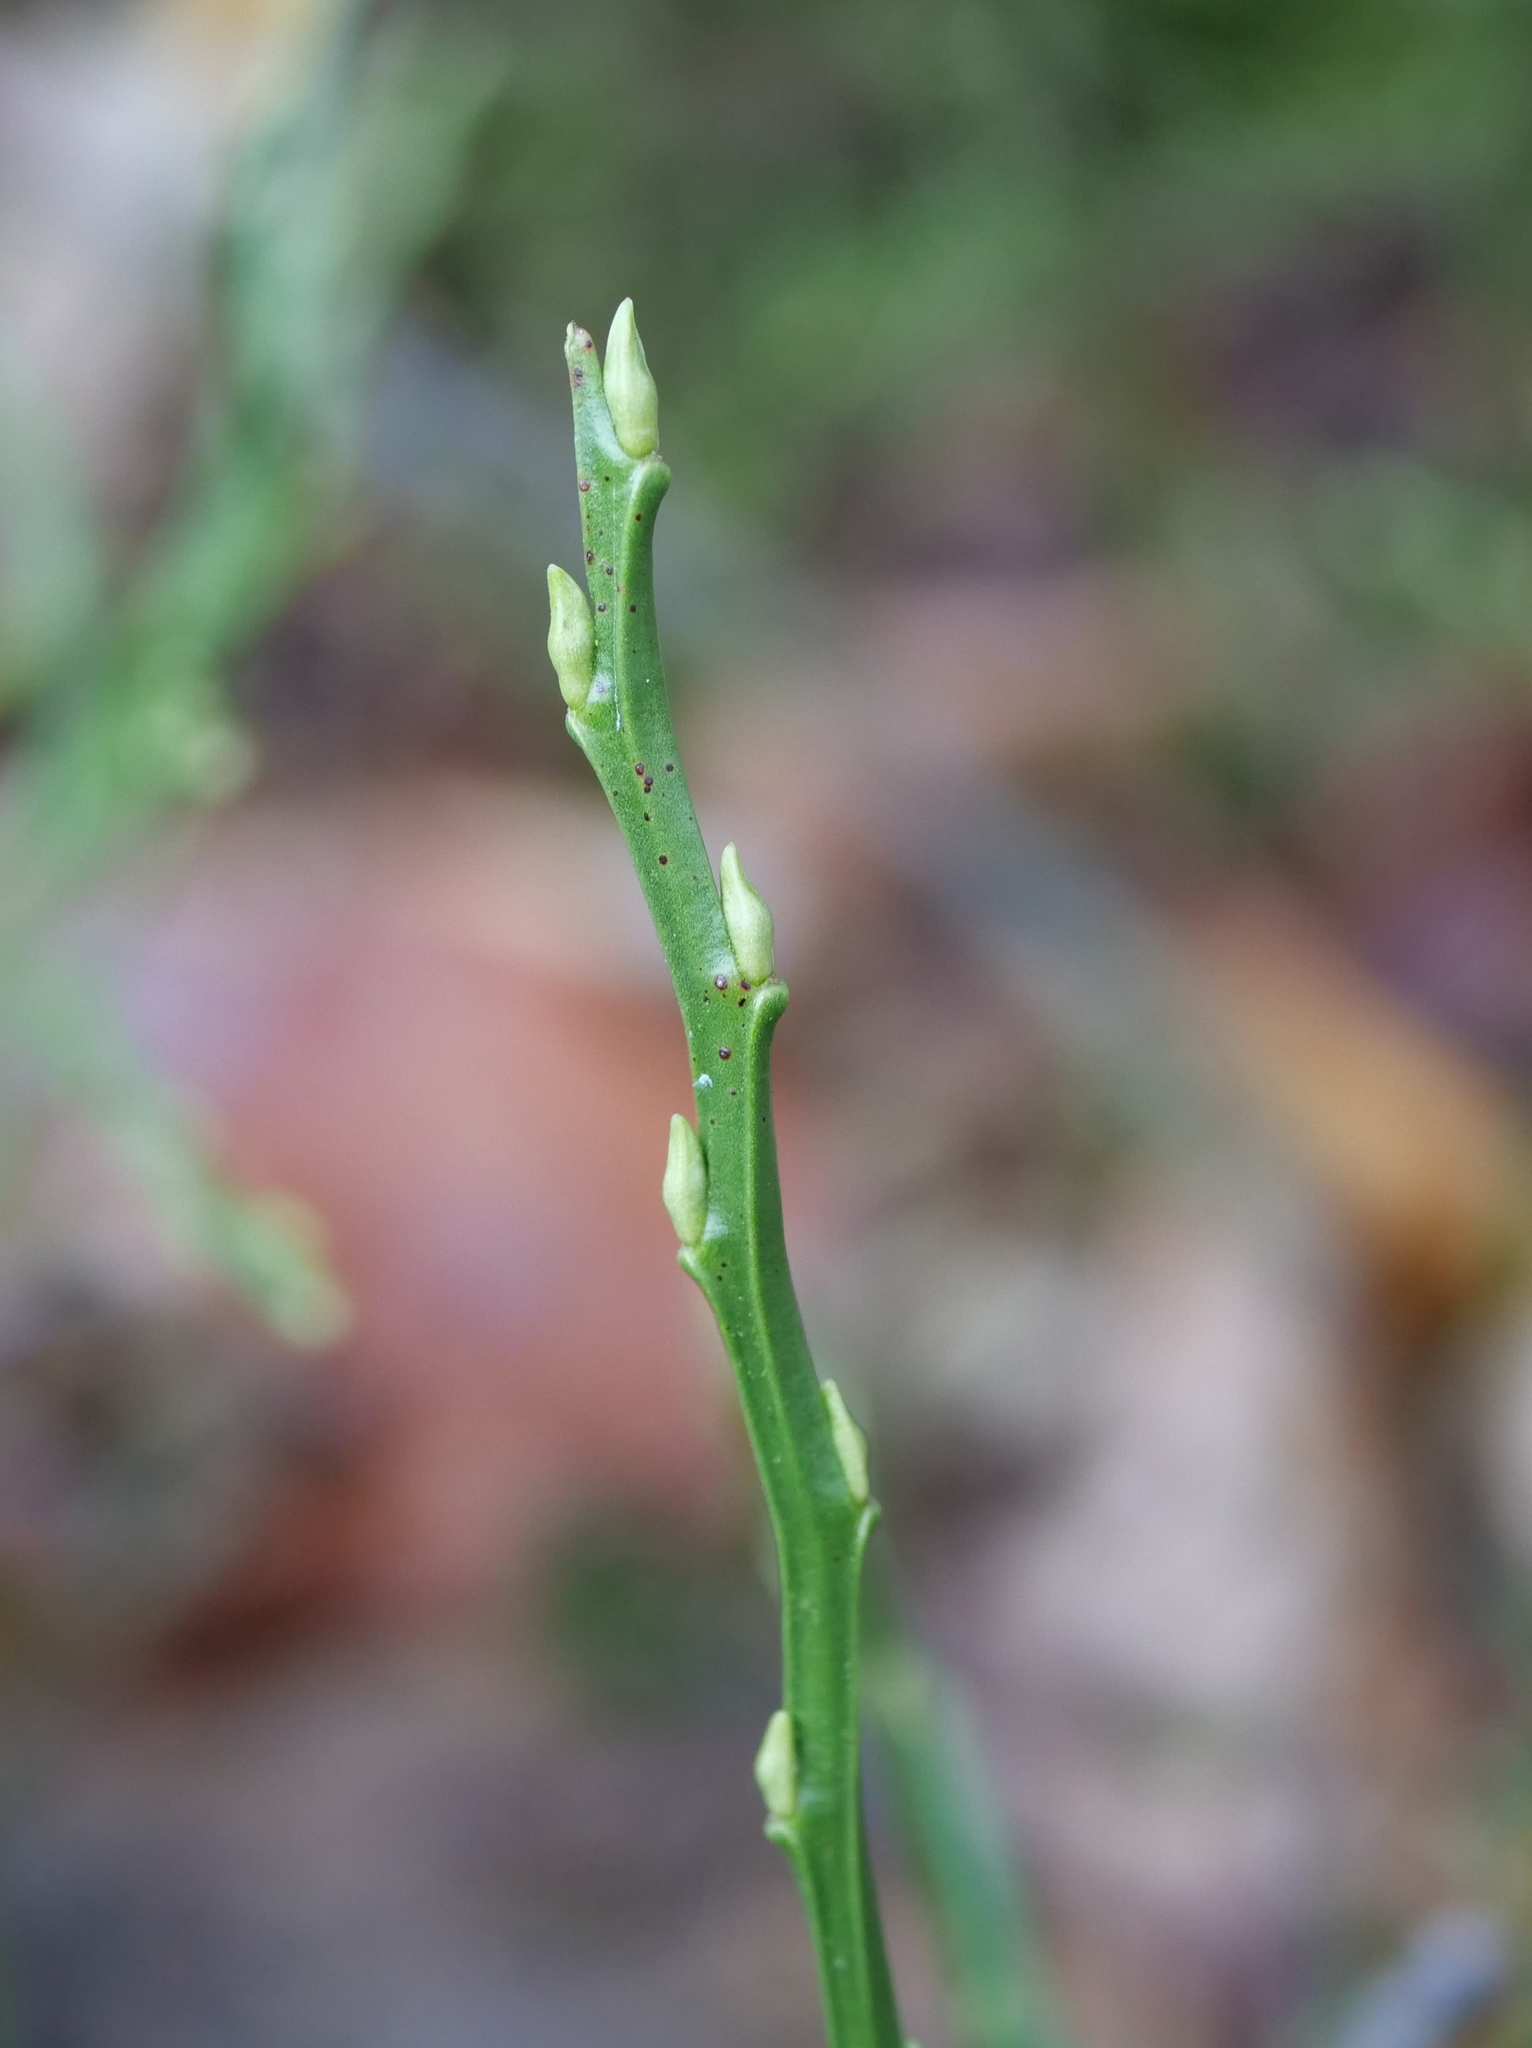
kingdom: Plantae
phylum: Tracheophyta
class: Magnoliopsida
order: Ericales
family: Ericaceae
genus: Vaccinium
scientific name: Vaccinium myrtillus
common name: Bilberry
